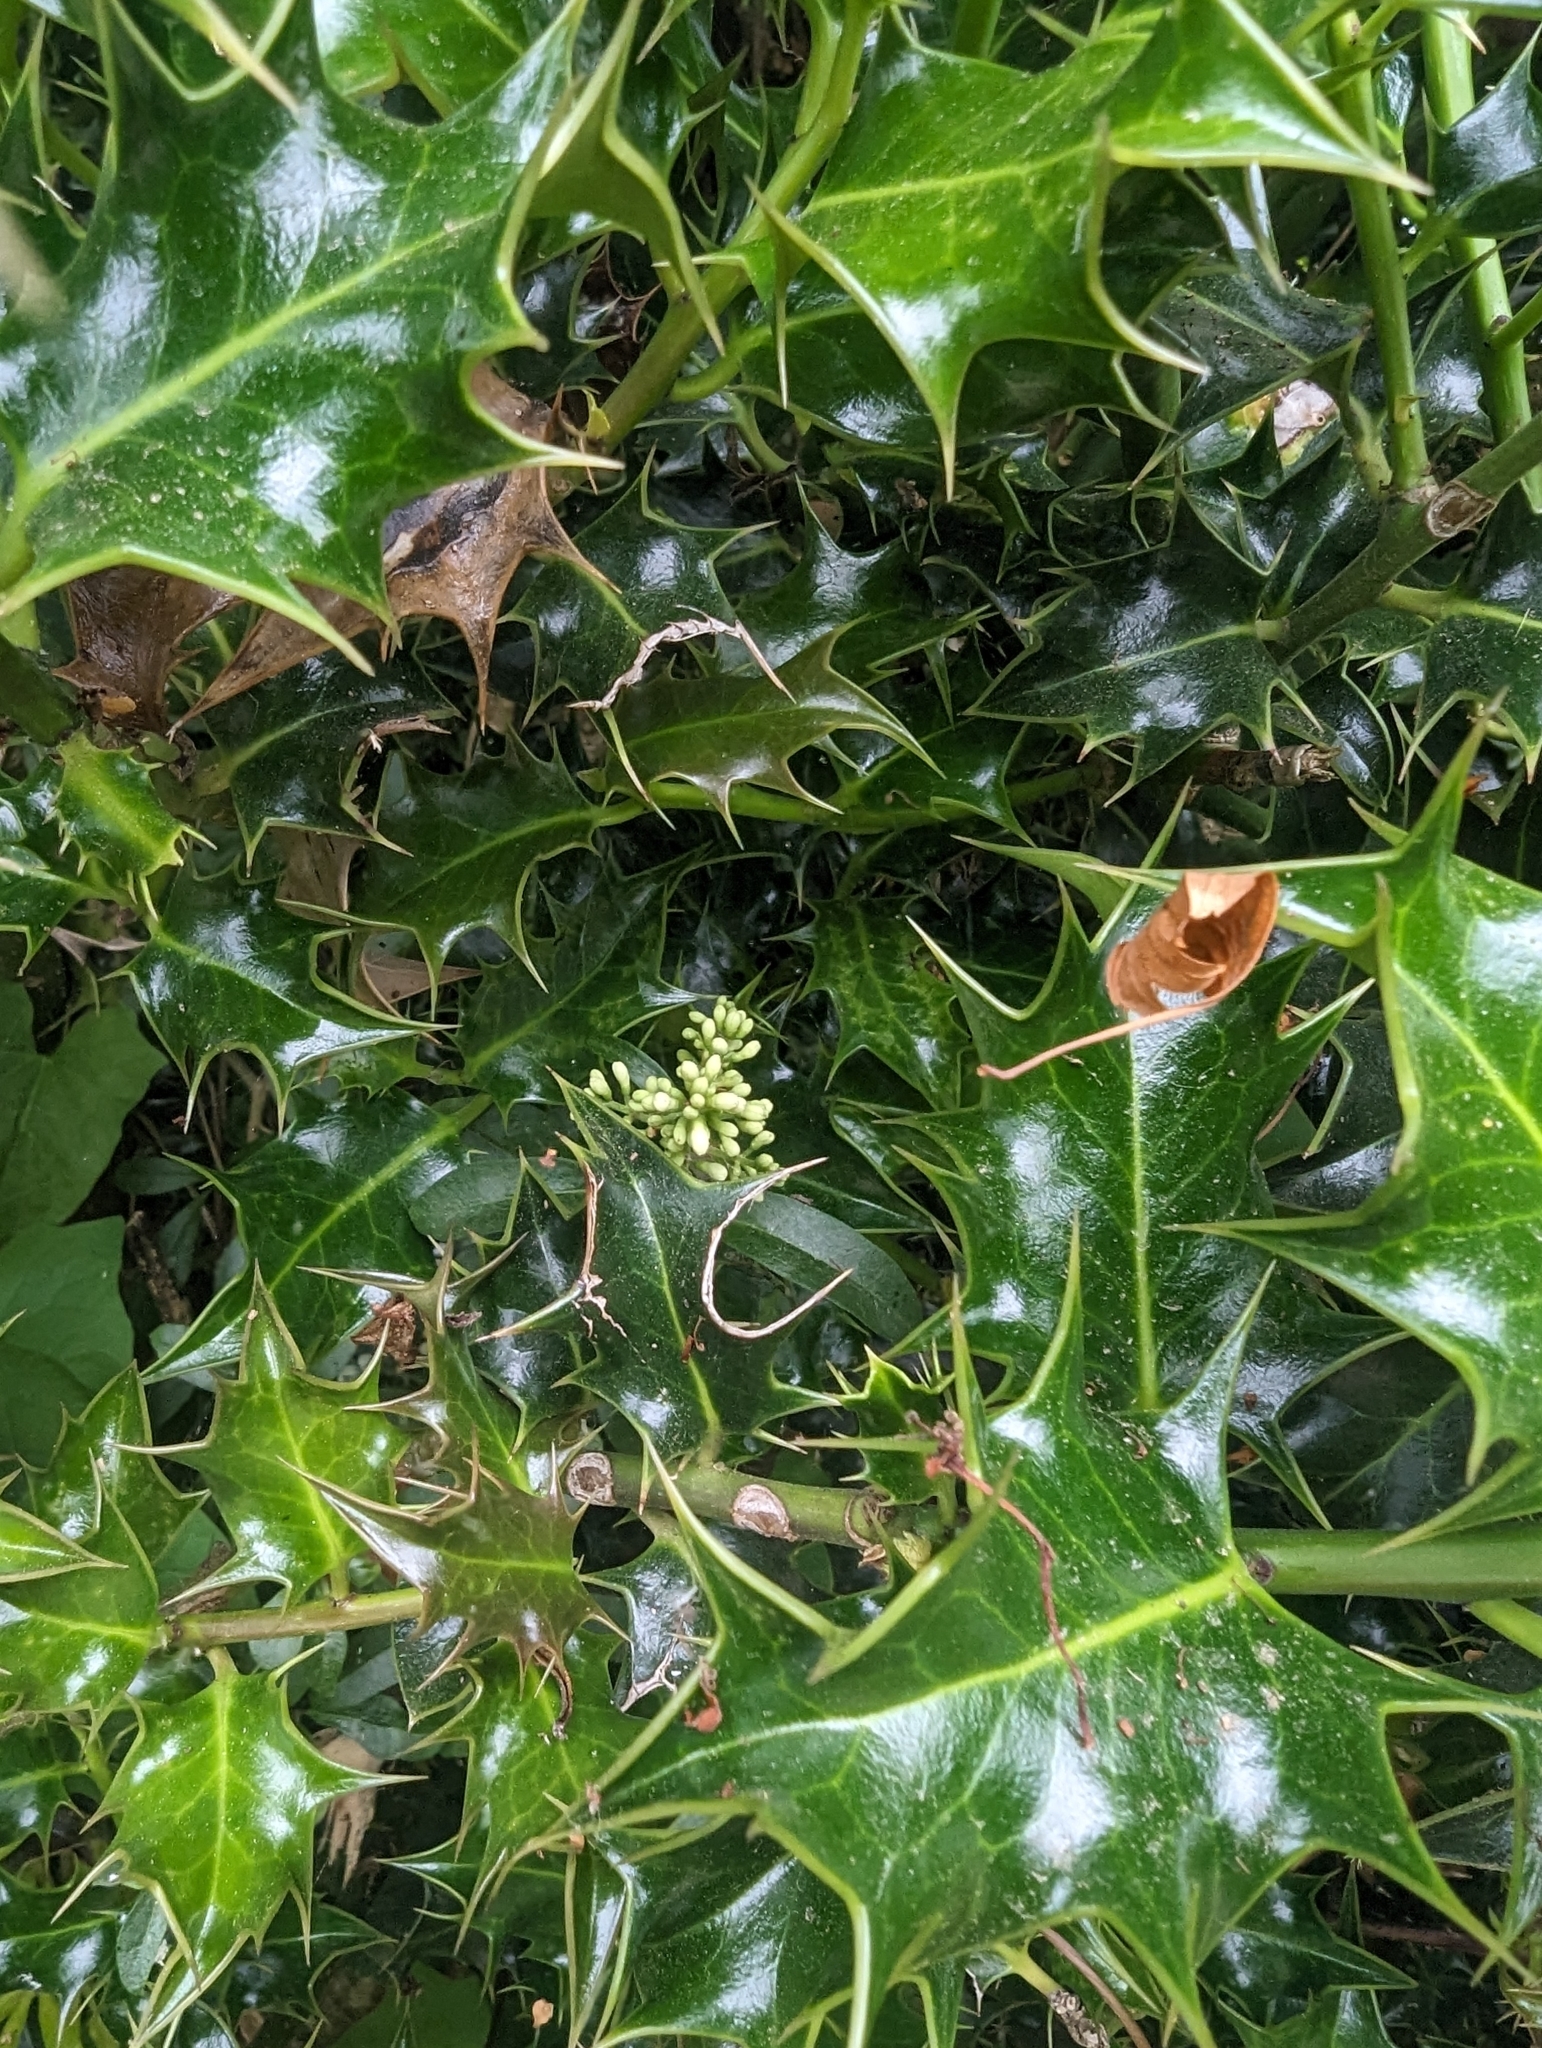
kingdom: Plantae
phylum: Tracheophyta
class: Magnoliopsida
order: Aquifoliales
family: Aquifoliaceae
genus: Ilex
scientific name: Ilex aquifolium
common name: English holly
